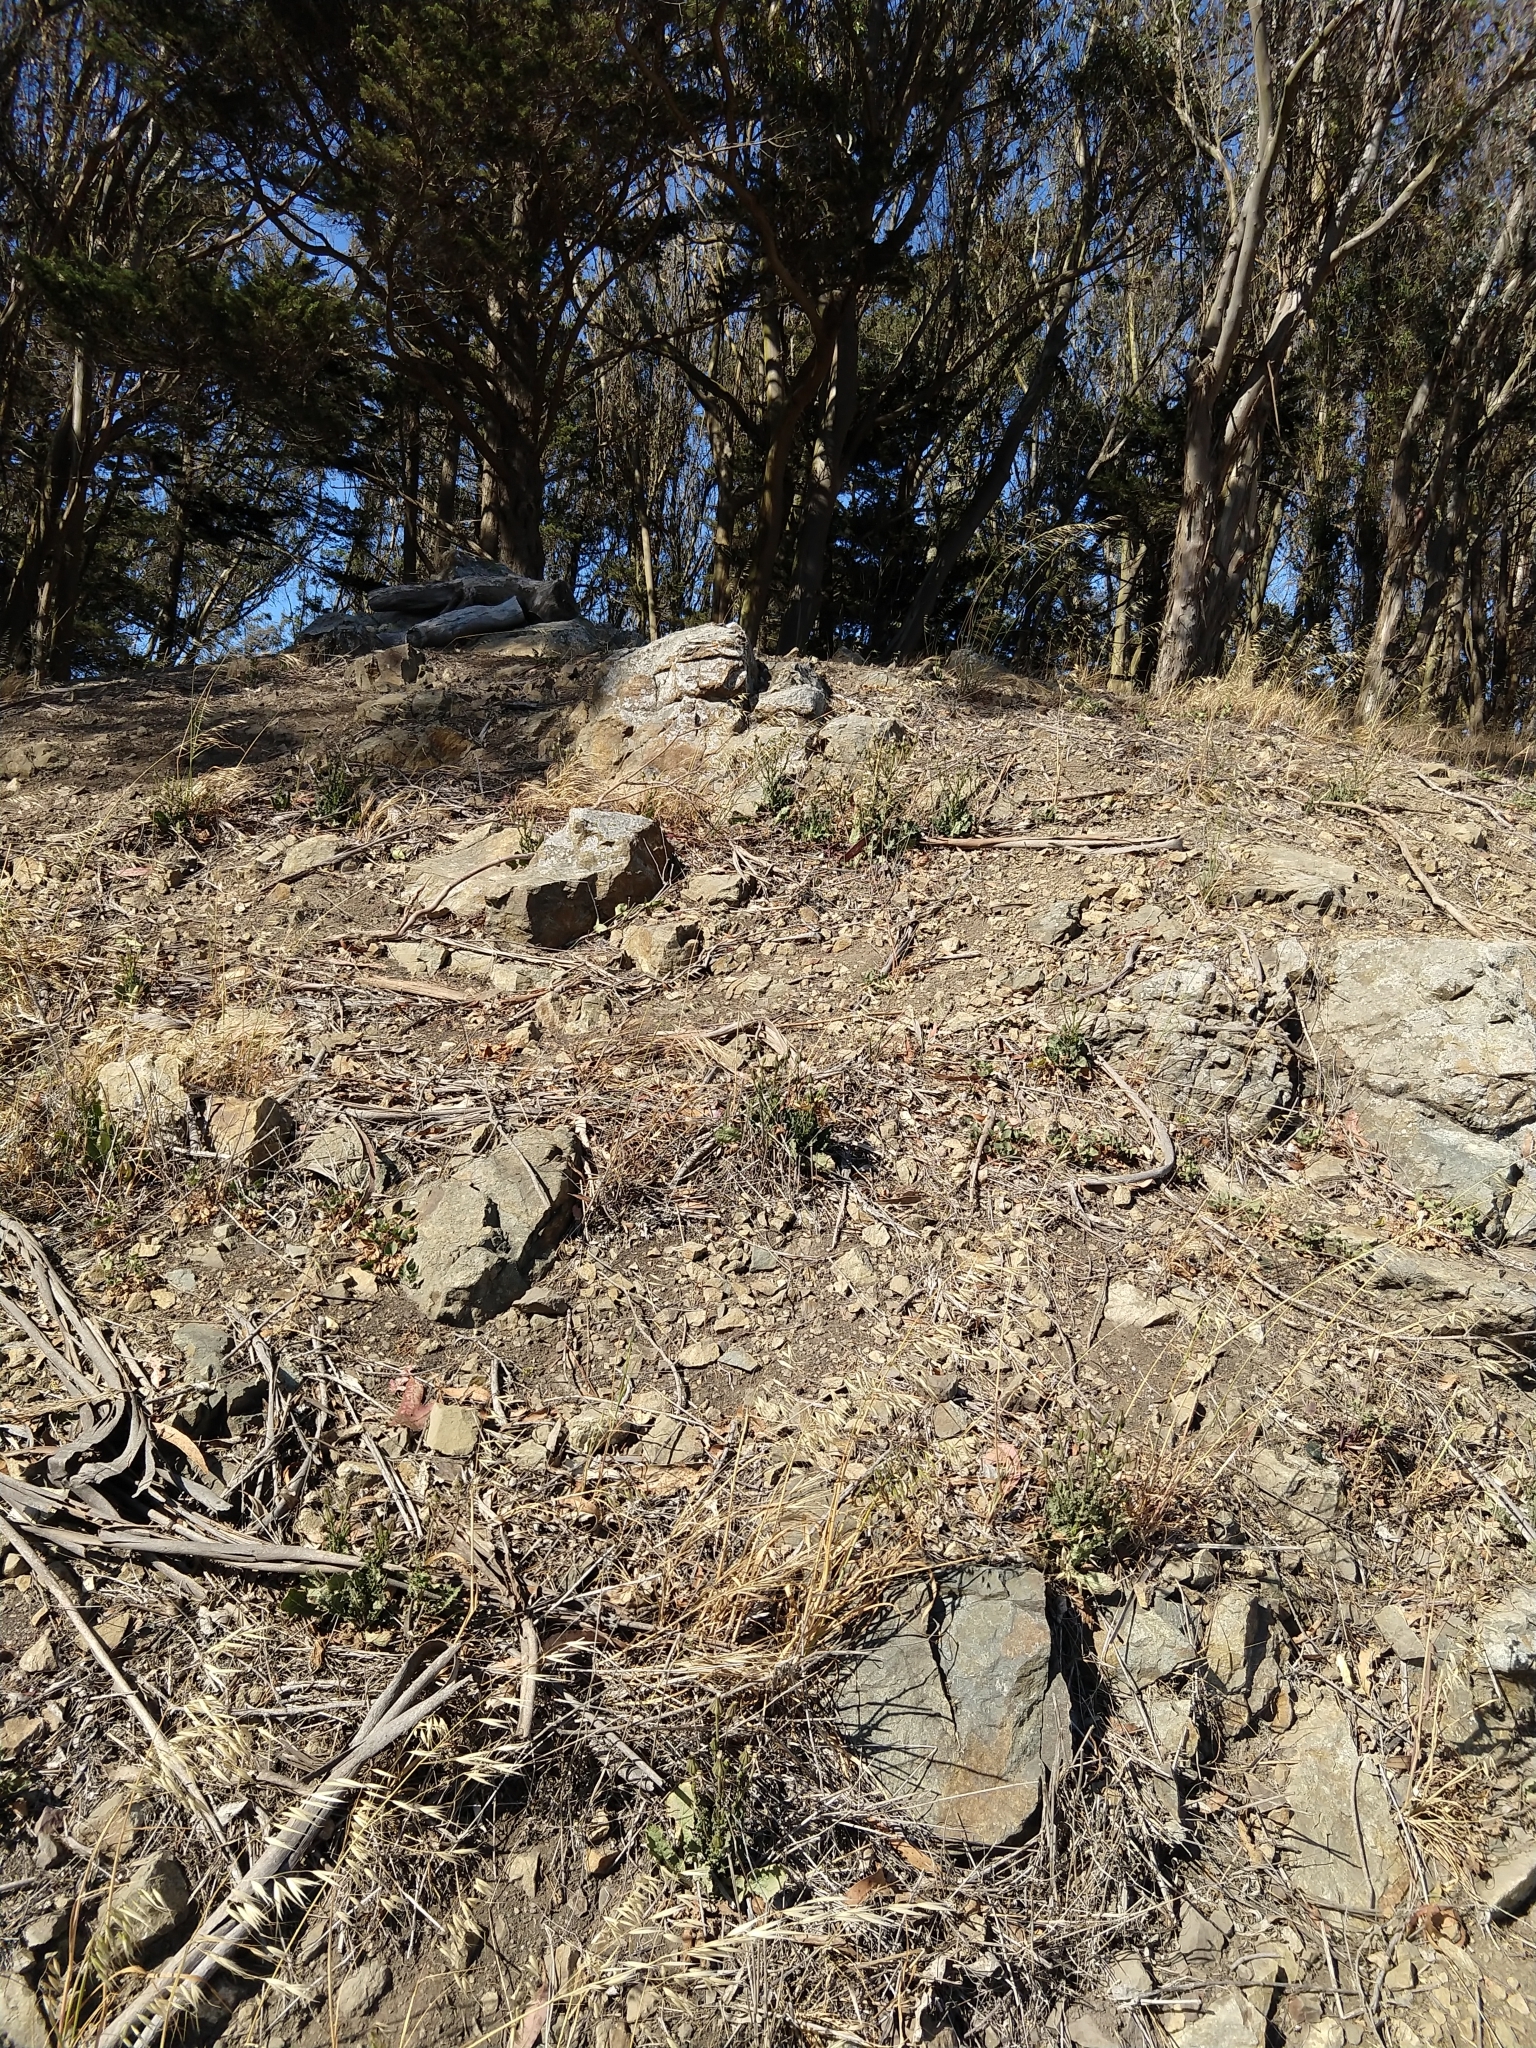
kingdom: Plantae
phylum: Tracheophyta
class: Magnoliopsida
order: Asterales
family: Asteraceae
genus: Urospermum
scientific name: Urospermum picroides
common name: False hawkbit
